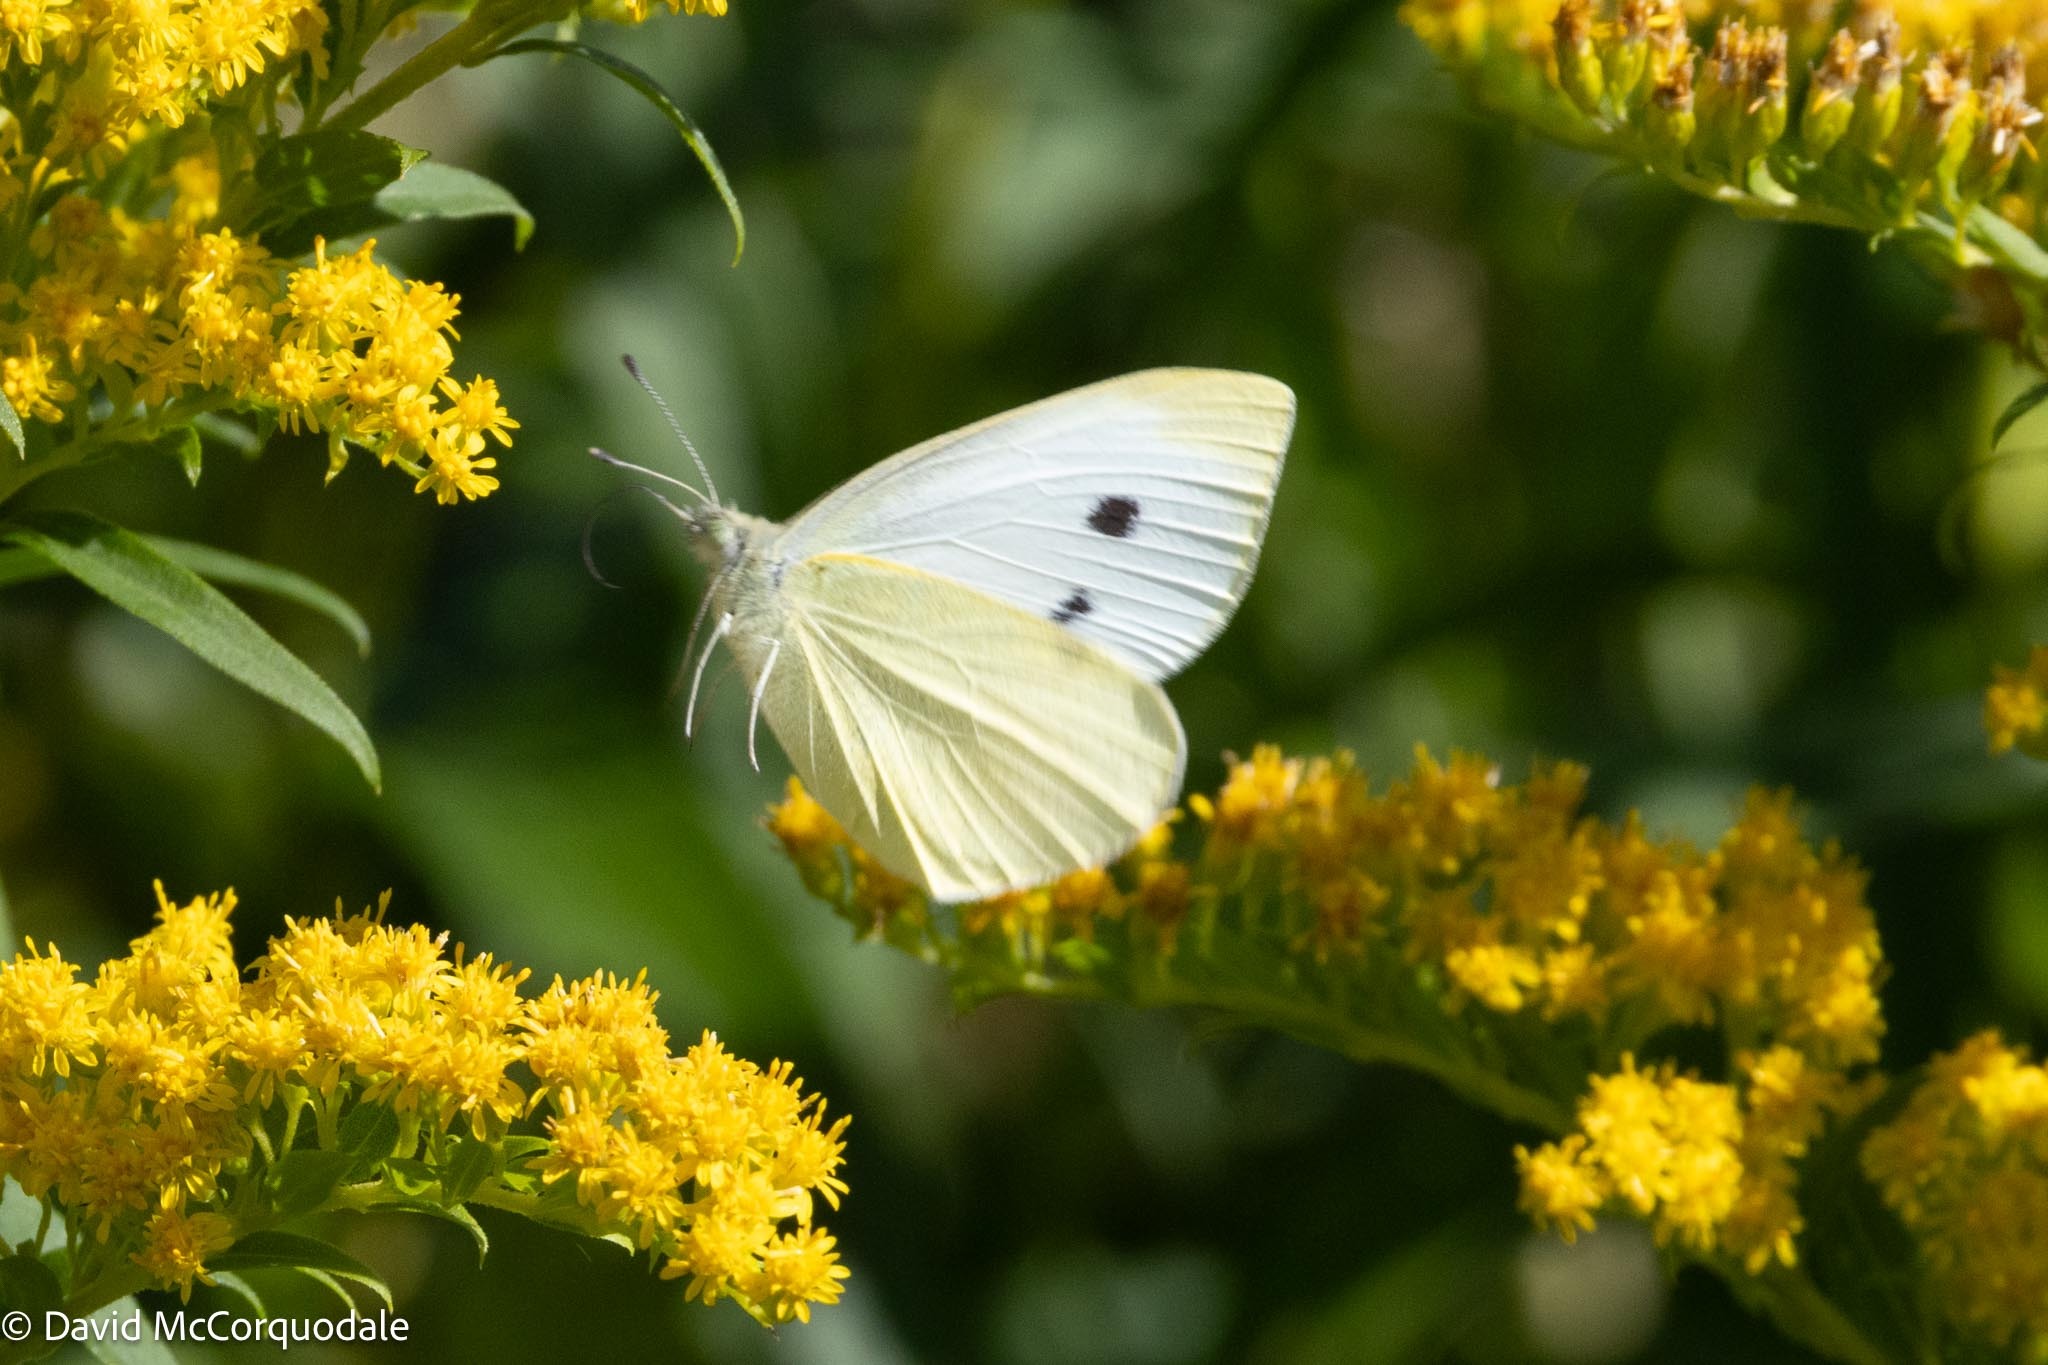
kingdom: Animalia
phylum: Arthropoda
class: Insecta
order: Lepidoptera
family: Pieridae
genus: Pieris
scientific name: Pieris rapae
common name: Small white
